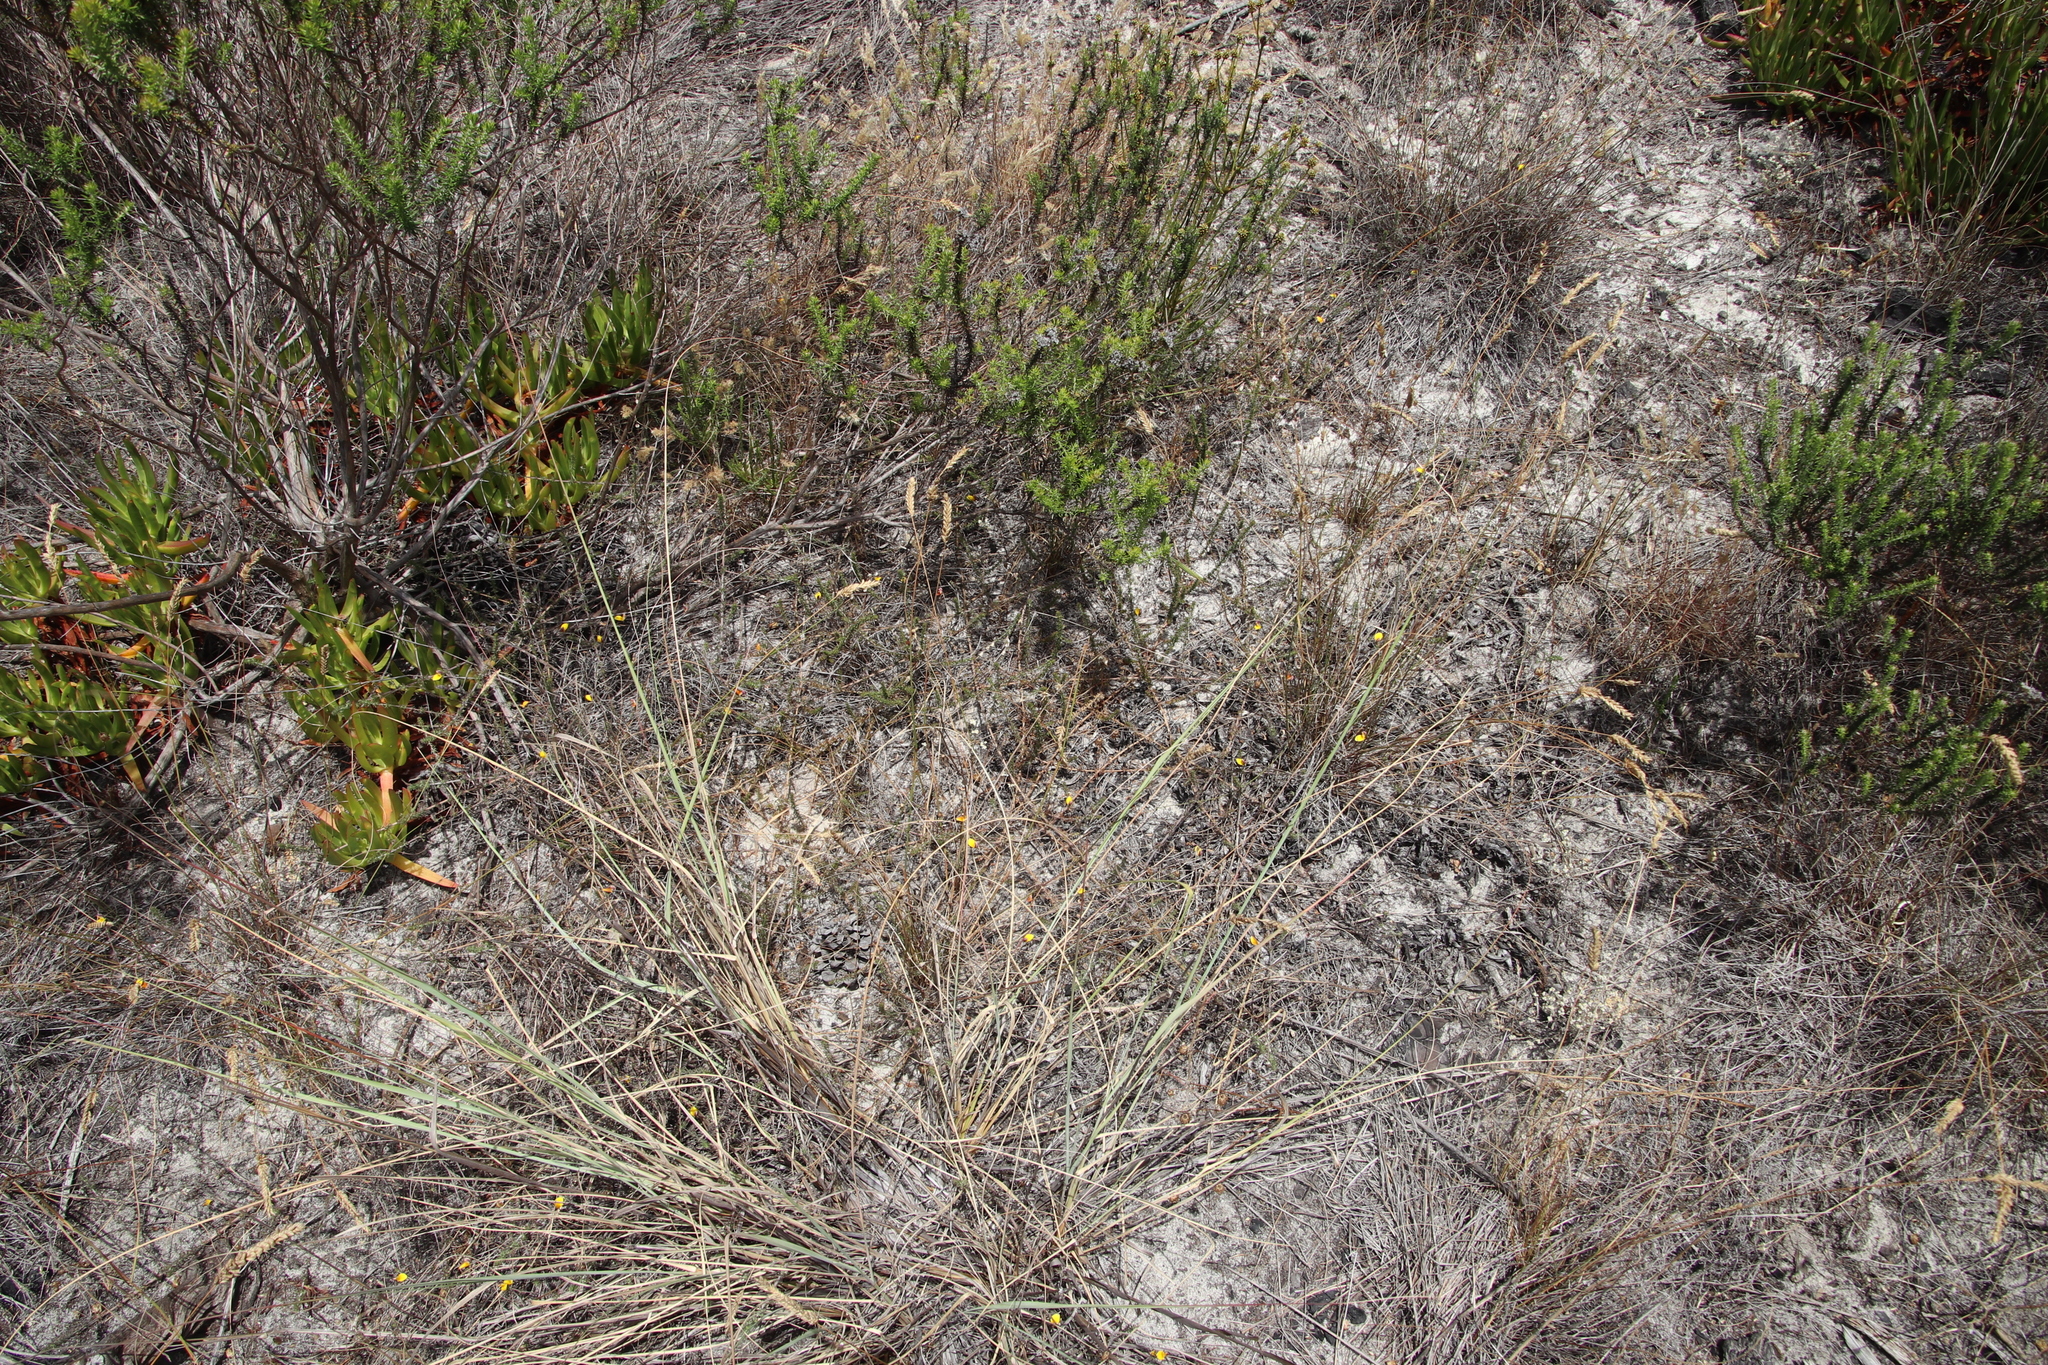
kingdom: Plantae
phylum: Tracheophyta
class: Magnoliopsida
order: Fabales
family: Fabaceae
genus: Aspalathus
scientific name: Aspalathus retroflexa
